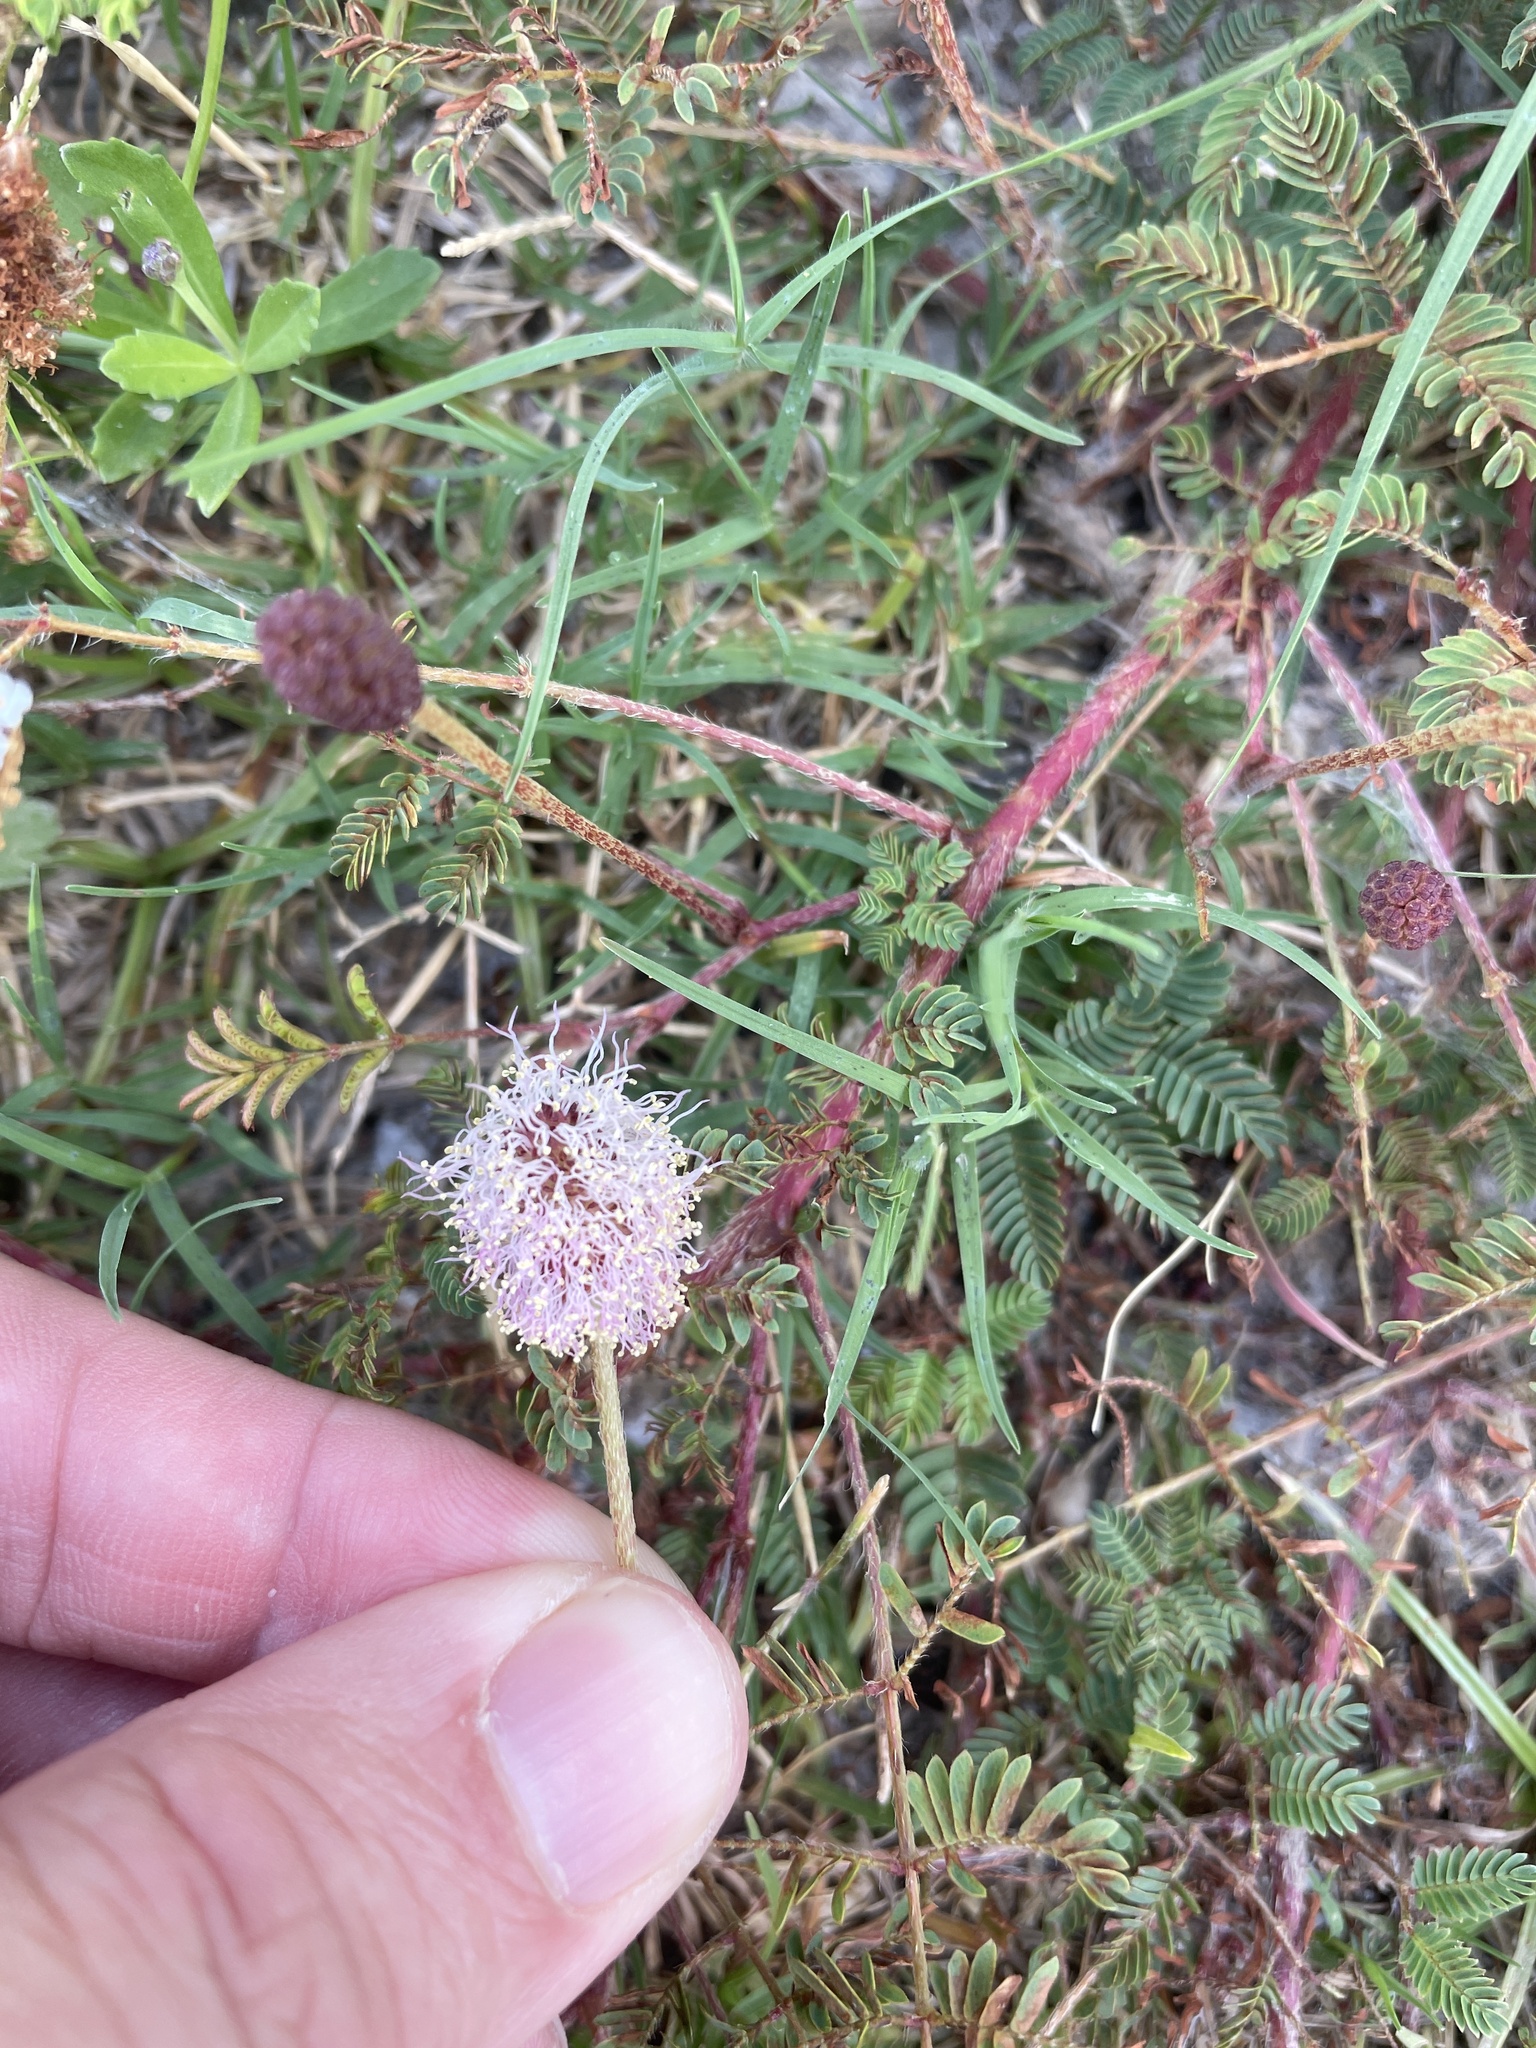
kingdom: Plantae
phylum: Tracheophyta
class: Magnoliopsida
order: Fabales
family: Fabaceae
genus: Mimosa
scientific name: Mimosa strigillosa
